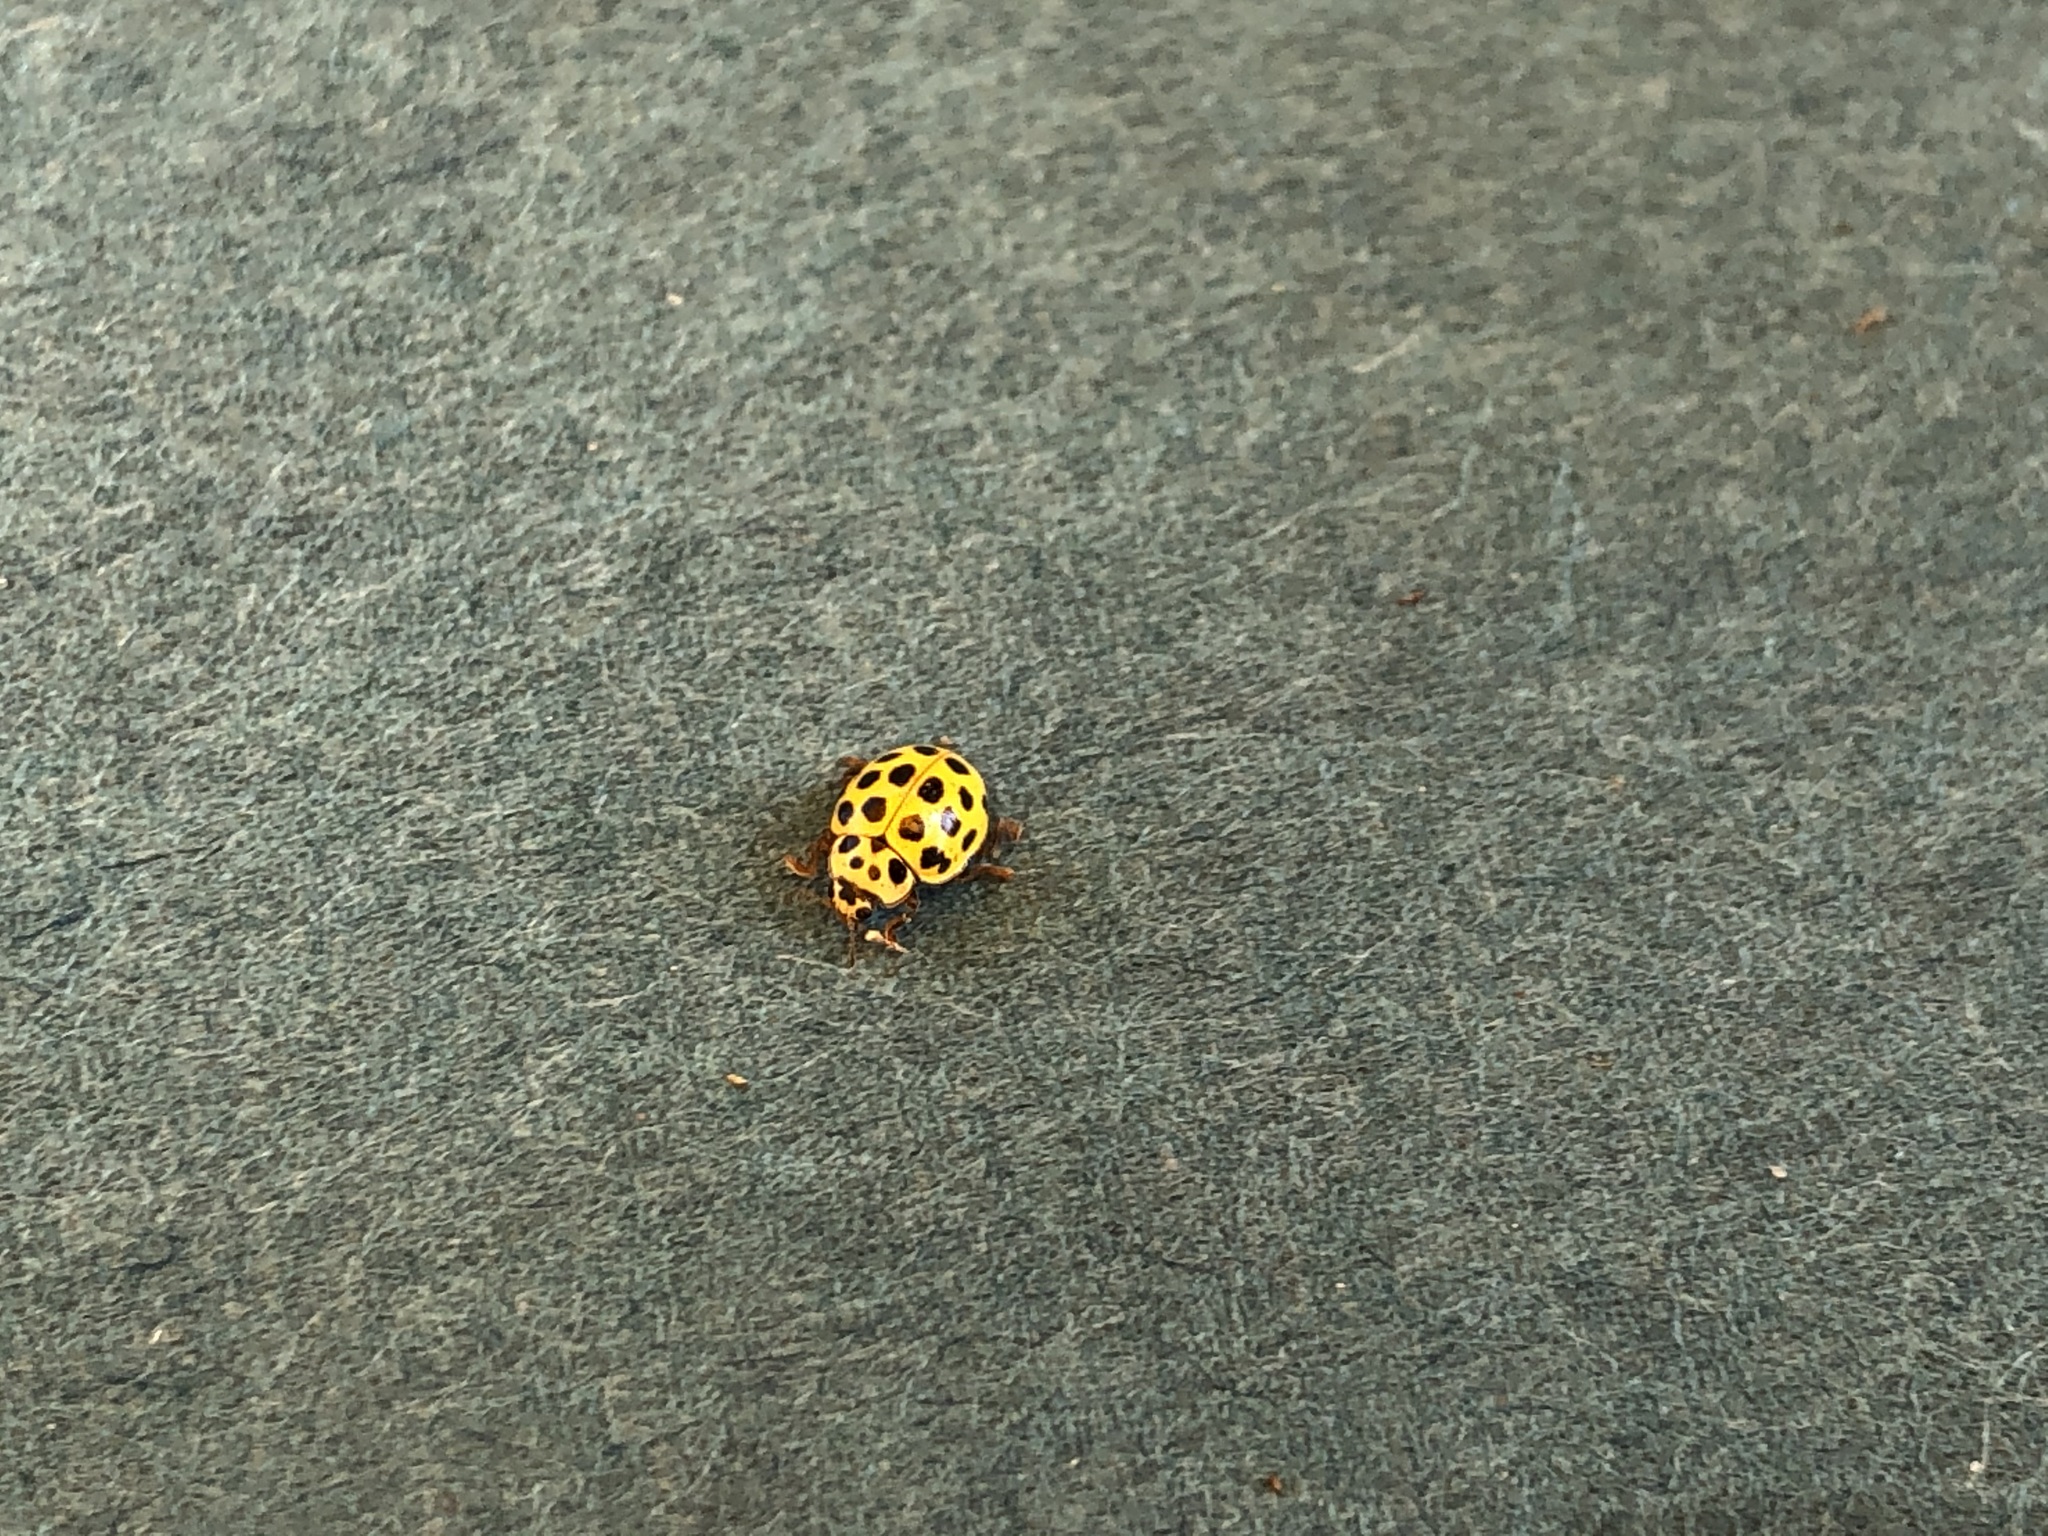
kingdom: Animalia
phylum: Arthropoda
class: Insecta
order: Coleoptera
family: Coccinellidae
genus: Psyllobora
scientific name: Psyllobora vigintiduopunctata
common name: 22-spot ladybird
